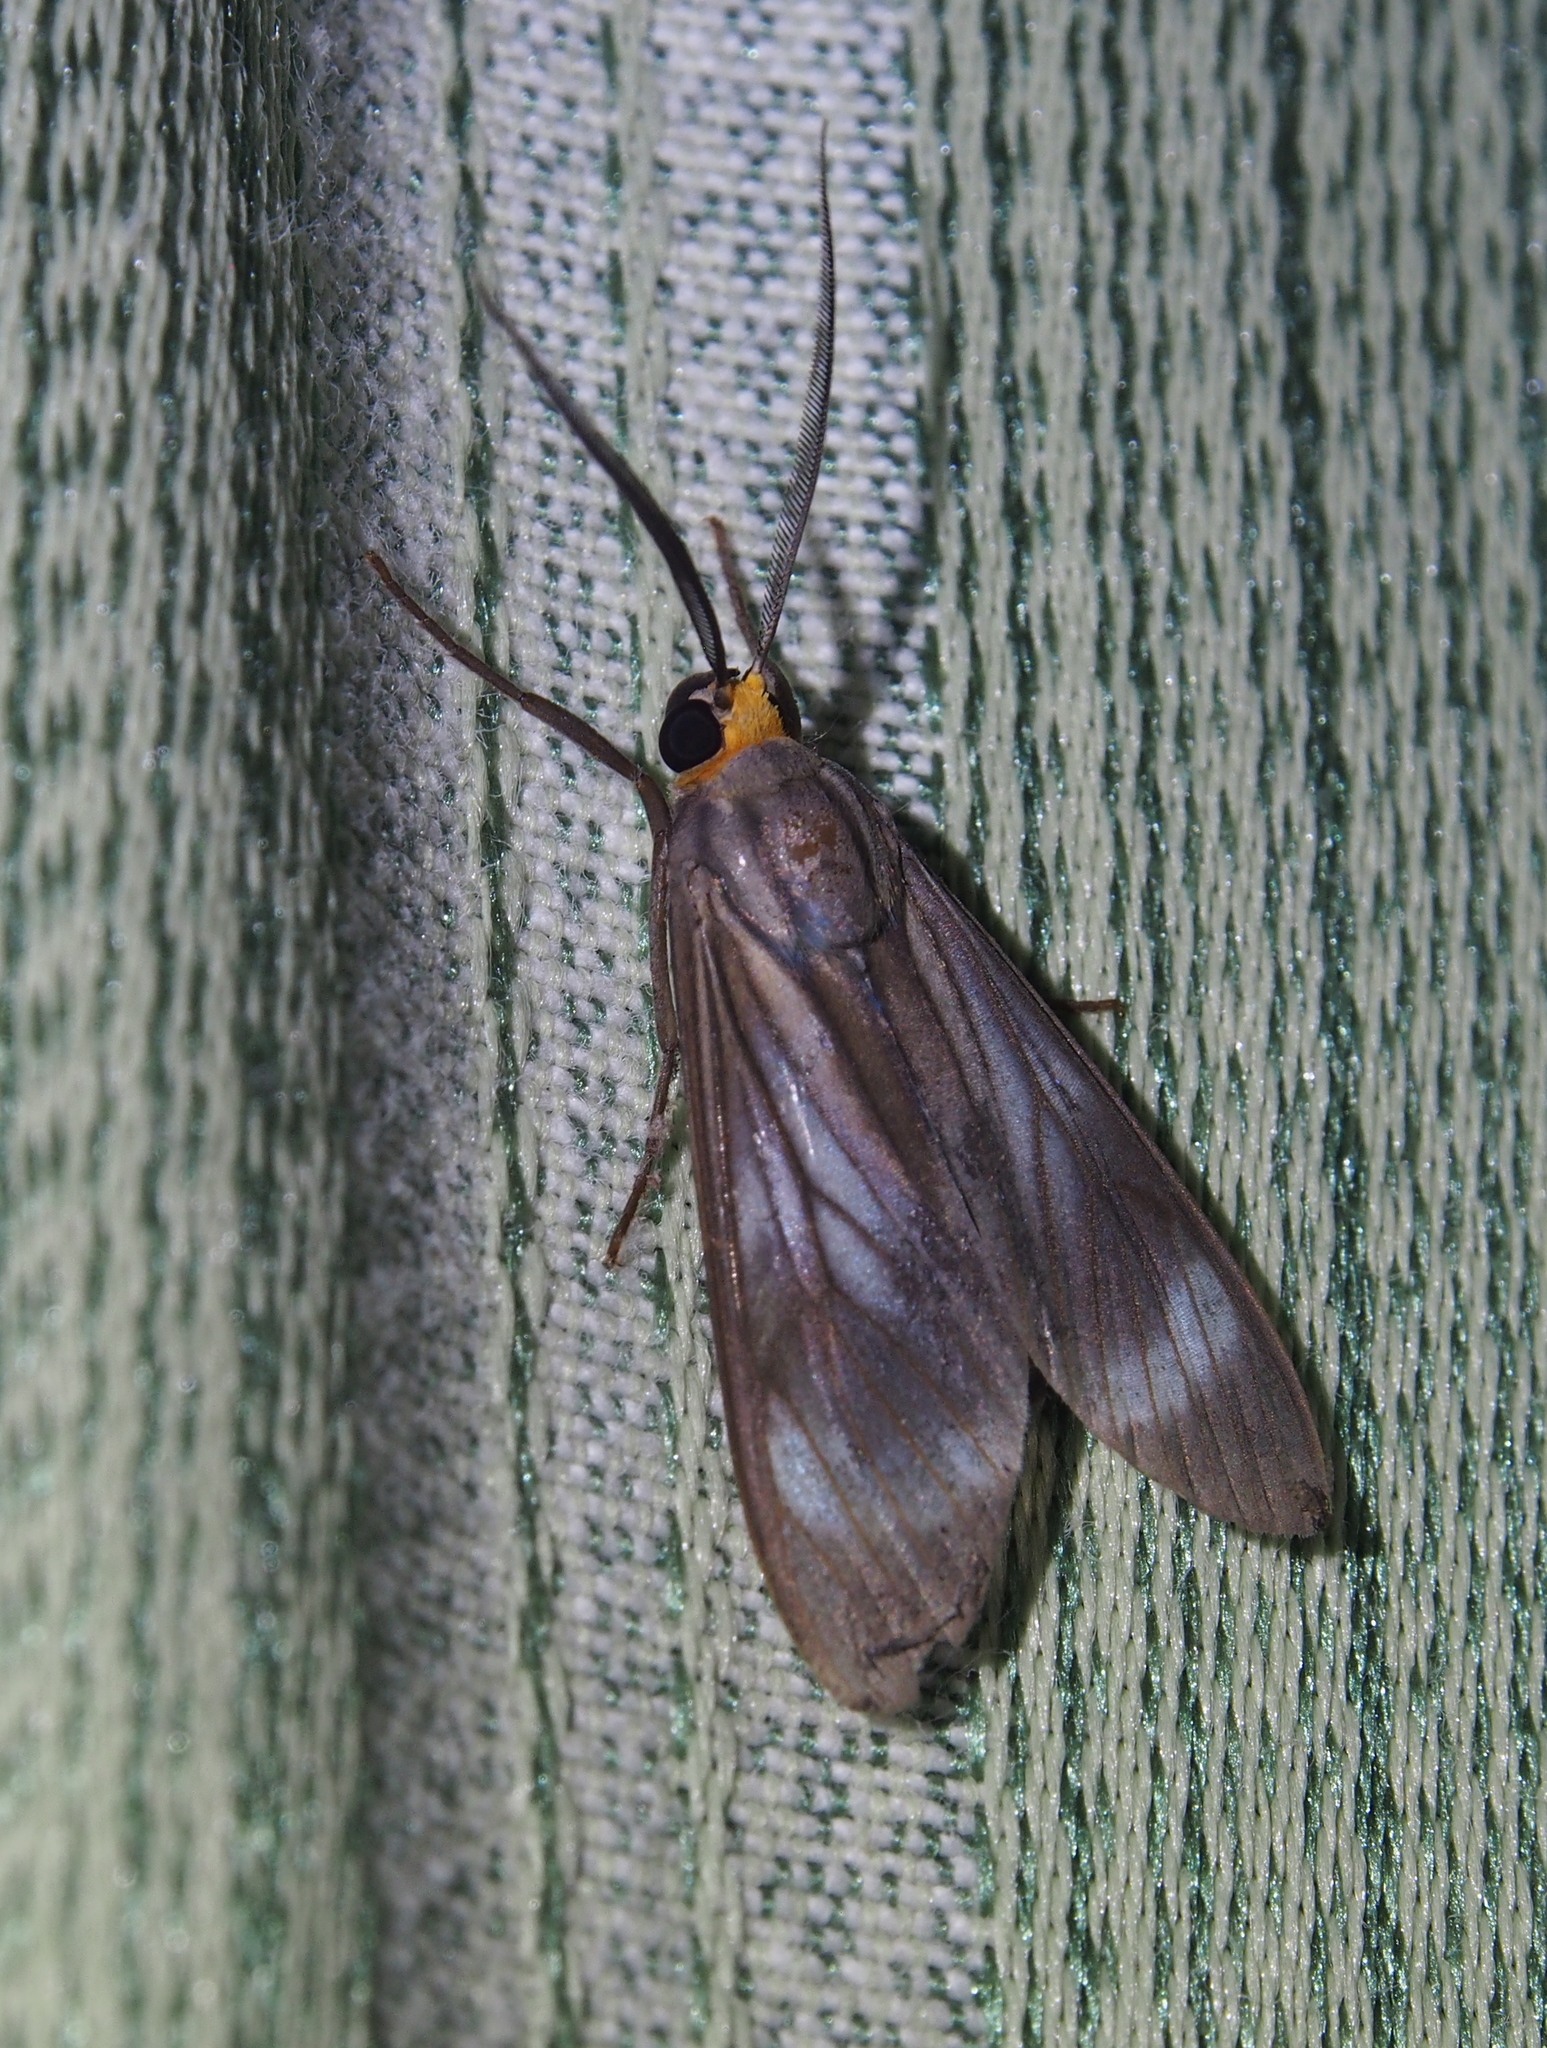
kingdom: Animalia
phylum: Arthropoda
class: Insecta
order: Lepidoptera
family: Erebidae
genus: Delphyre
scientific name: Delphyre testacea
